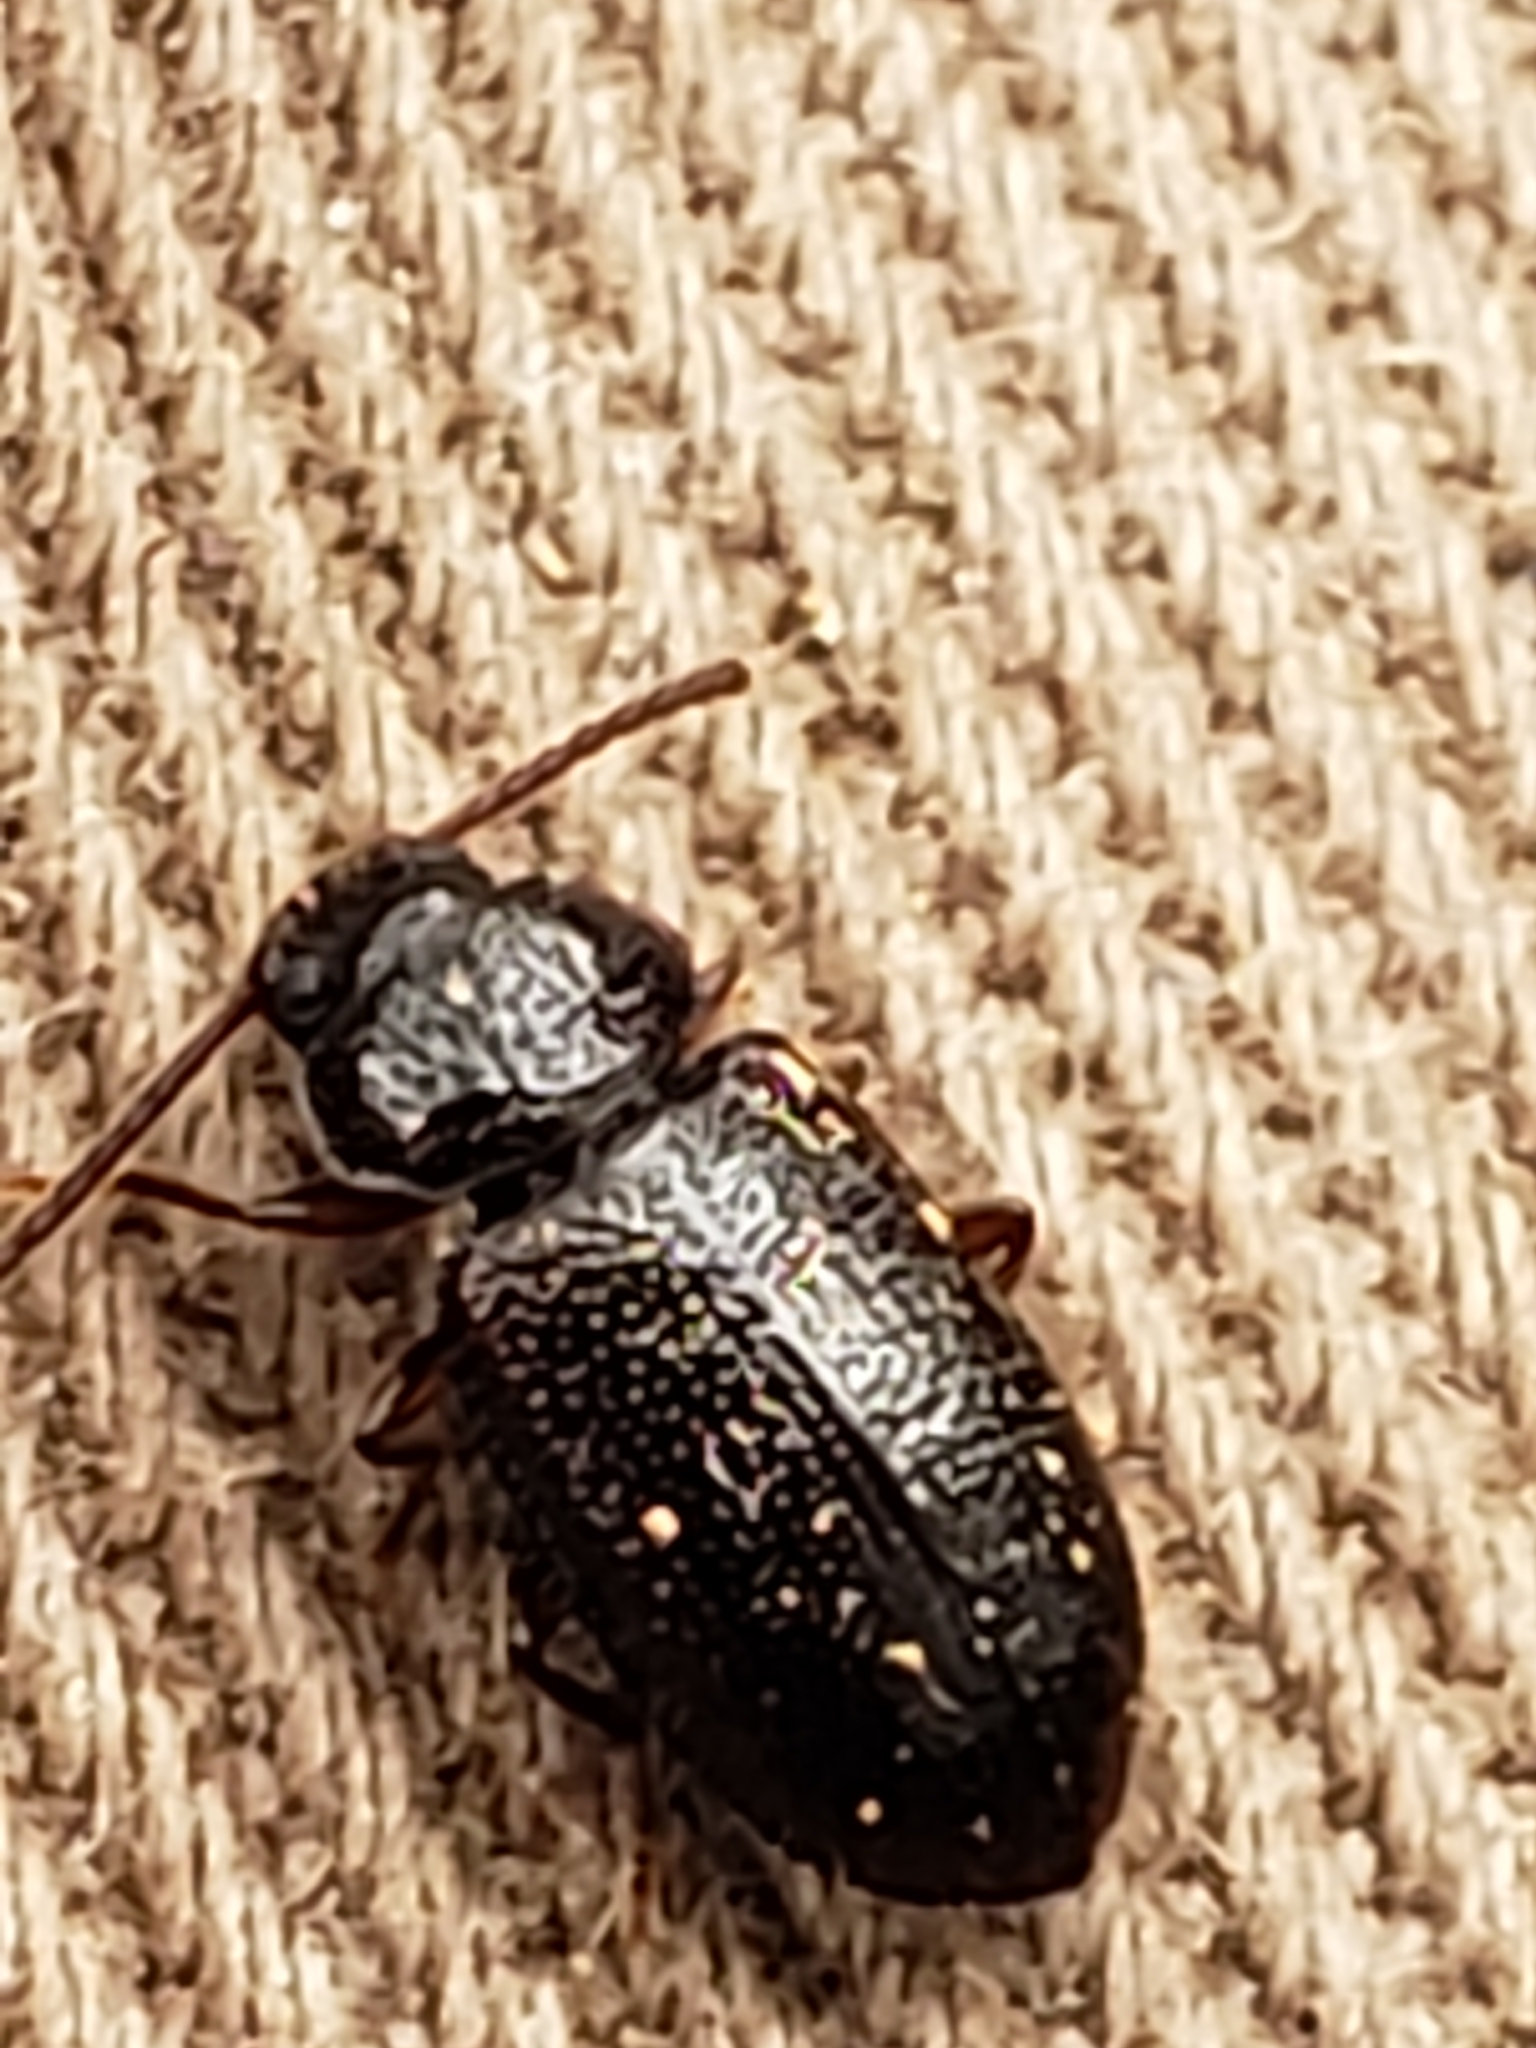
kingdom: Animalia
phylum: Arthropoda
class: Insecta
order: Coleoptera
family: Tenebrionidae
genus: Anaedus
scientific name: Anaedus brunneus
